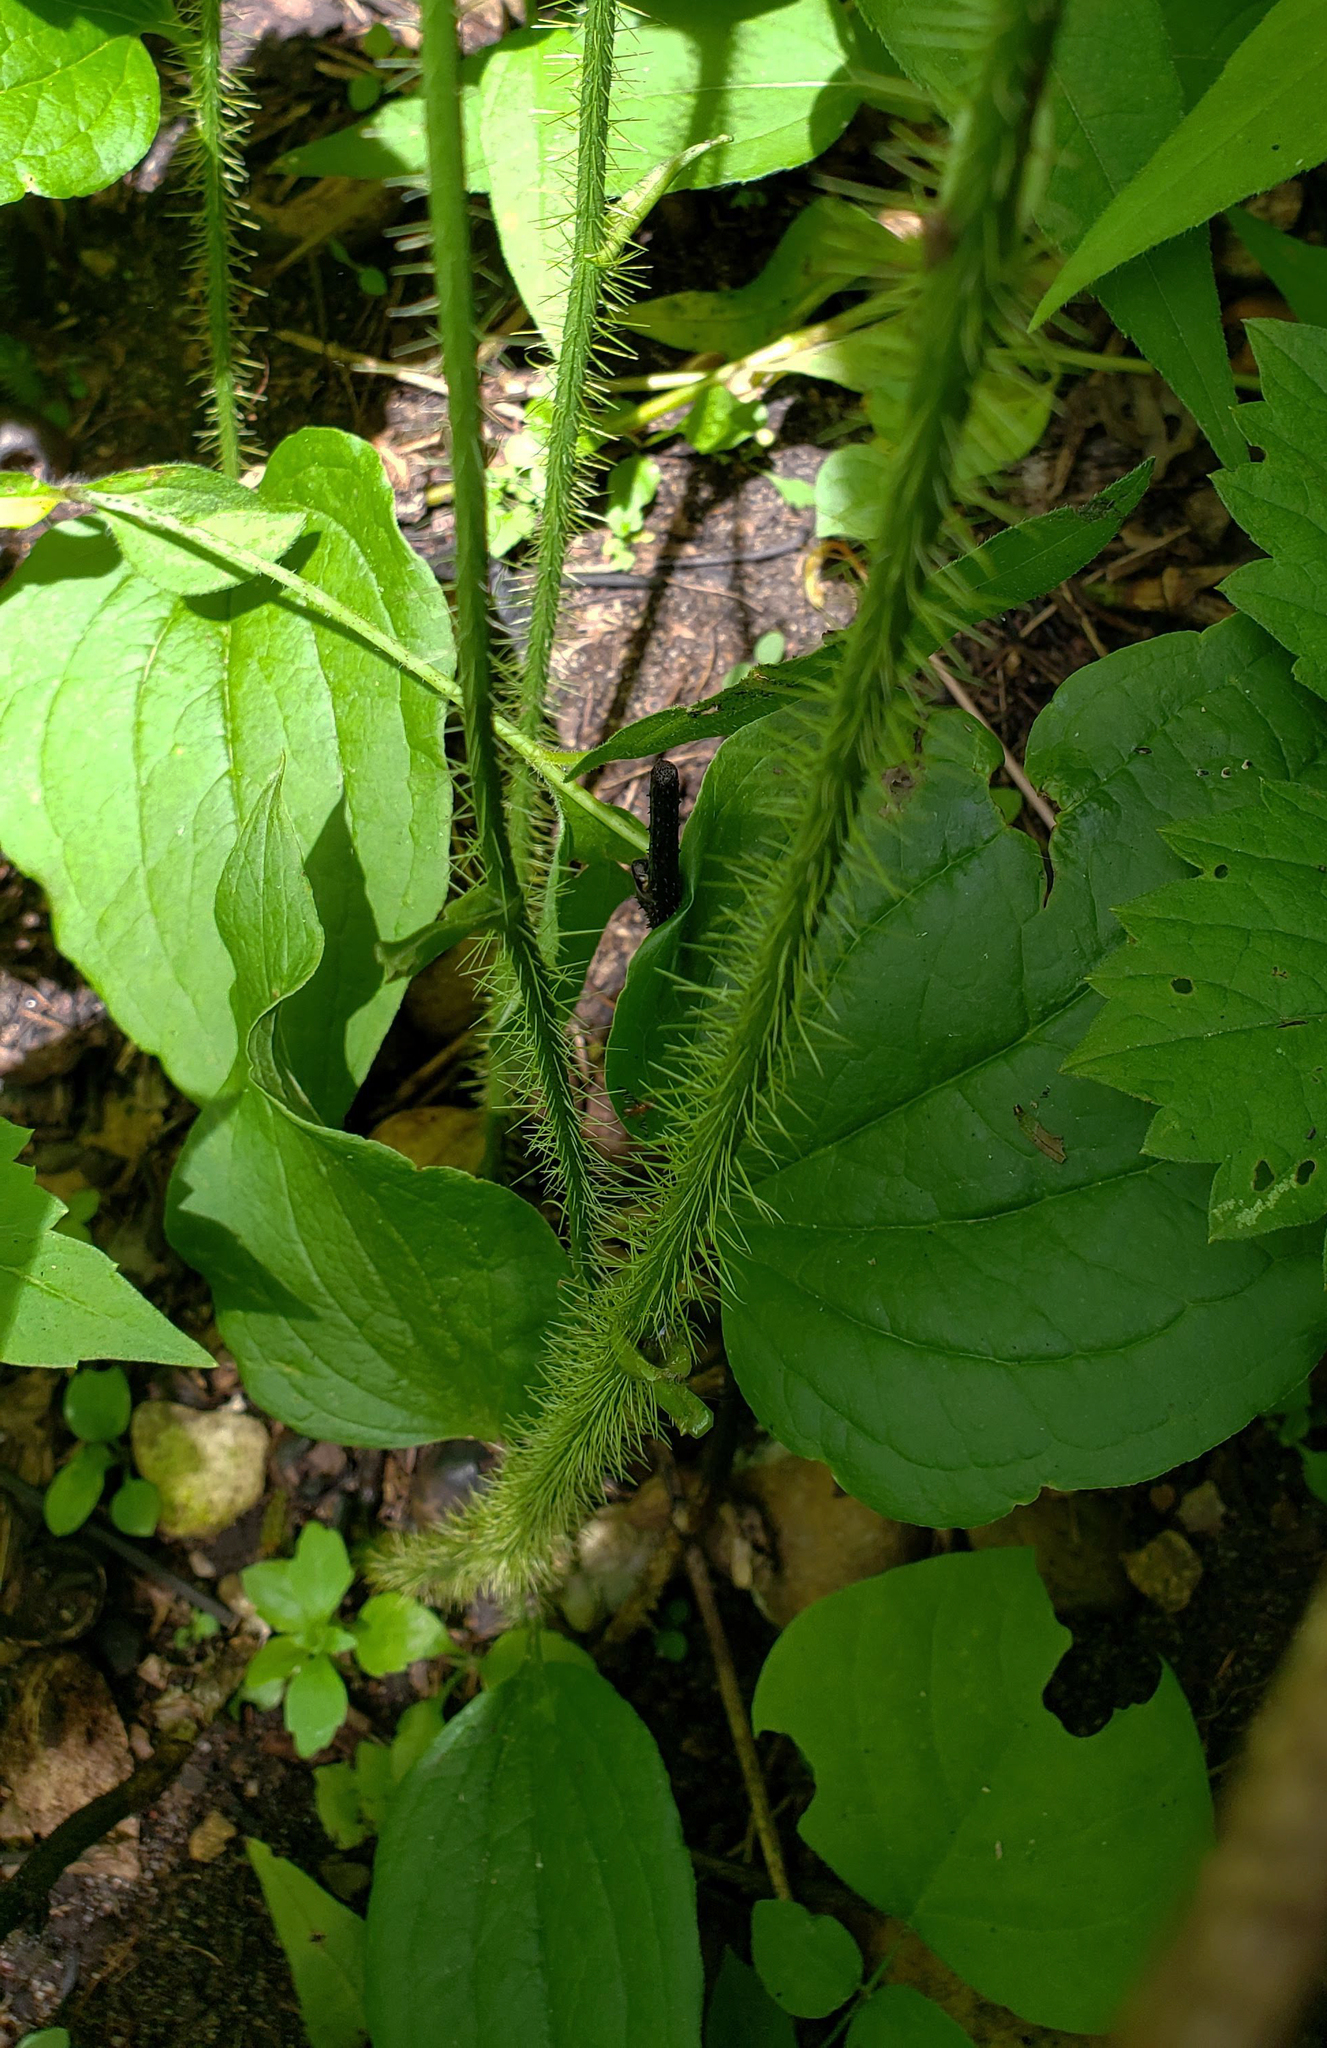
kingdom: Plantae
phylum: Tracheophyta
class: Liliopsida
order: Liliales
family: Smilacaceae
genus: Smilax
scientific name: Smilax tamnoides
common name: Hellfetter
